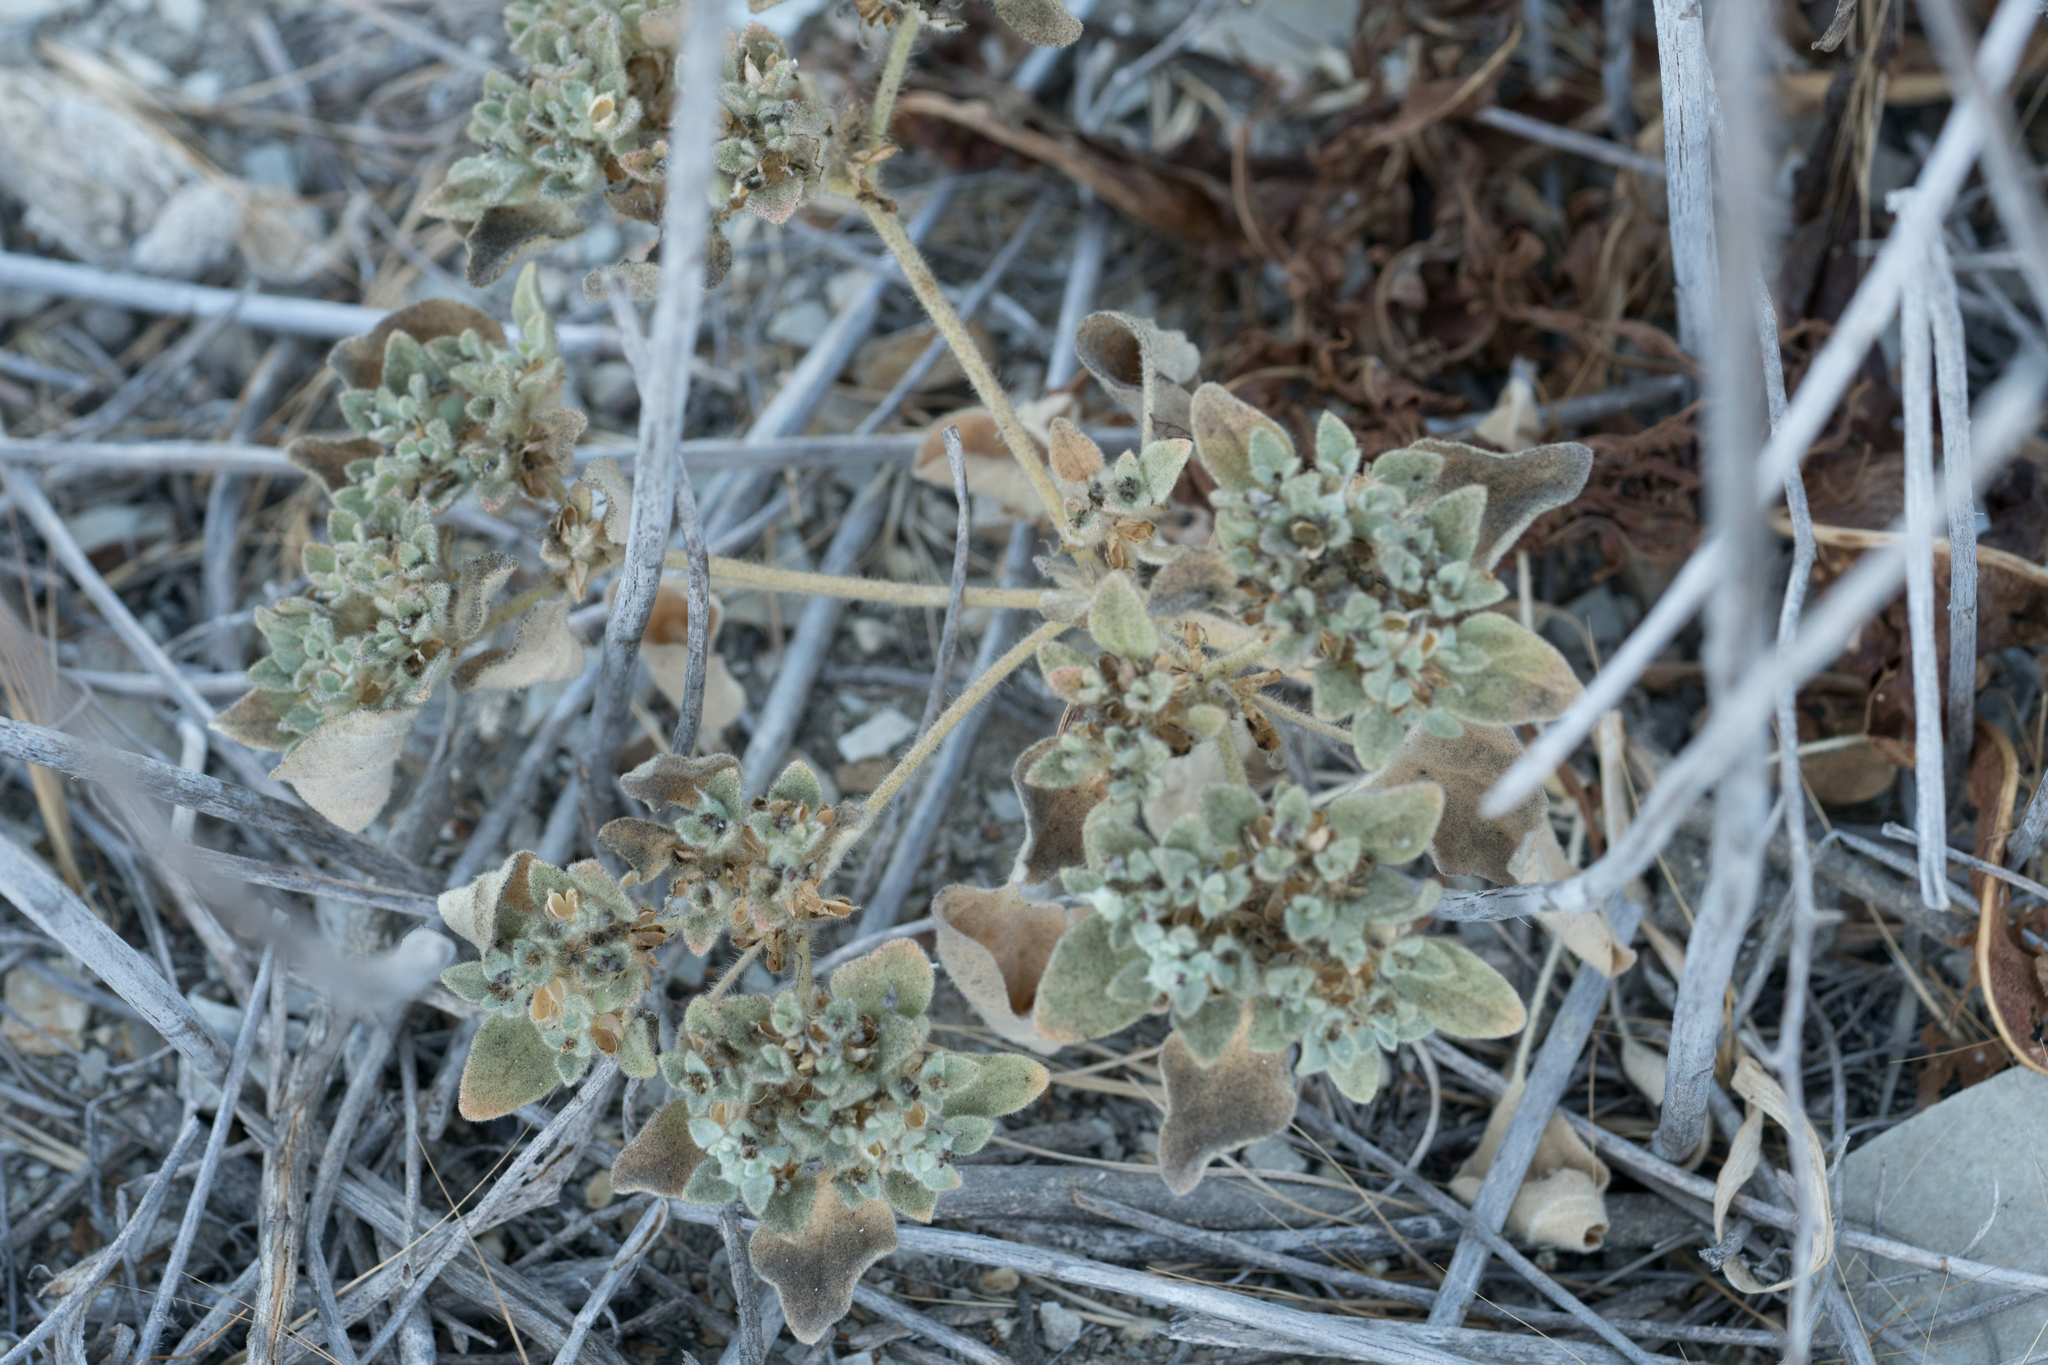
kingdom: Plantae
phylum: Tracheophyta
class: Magnoliopsida
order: Malpighiales
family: Euphorbiaceae
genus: Croton
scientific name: Croton setiger
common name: Dove weed
